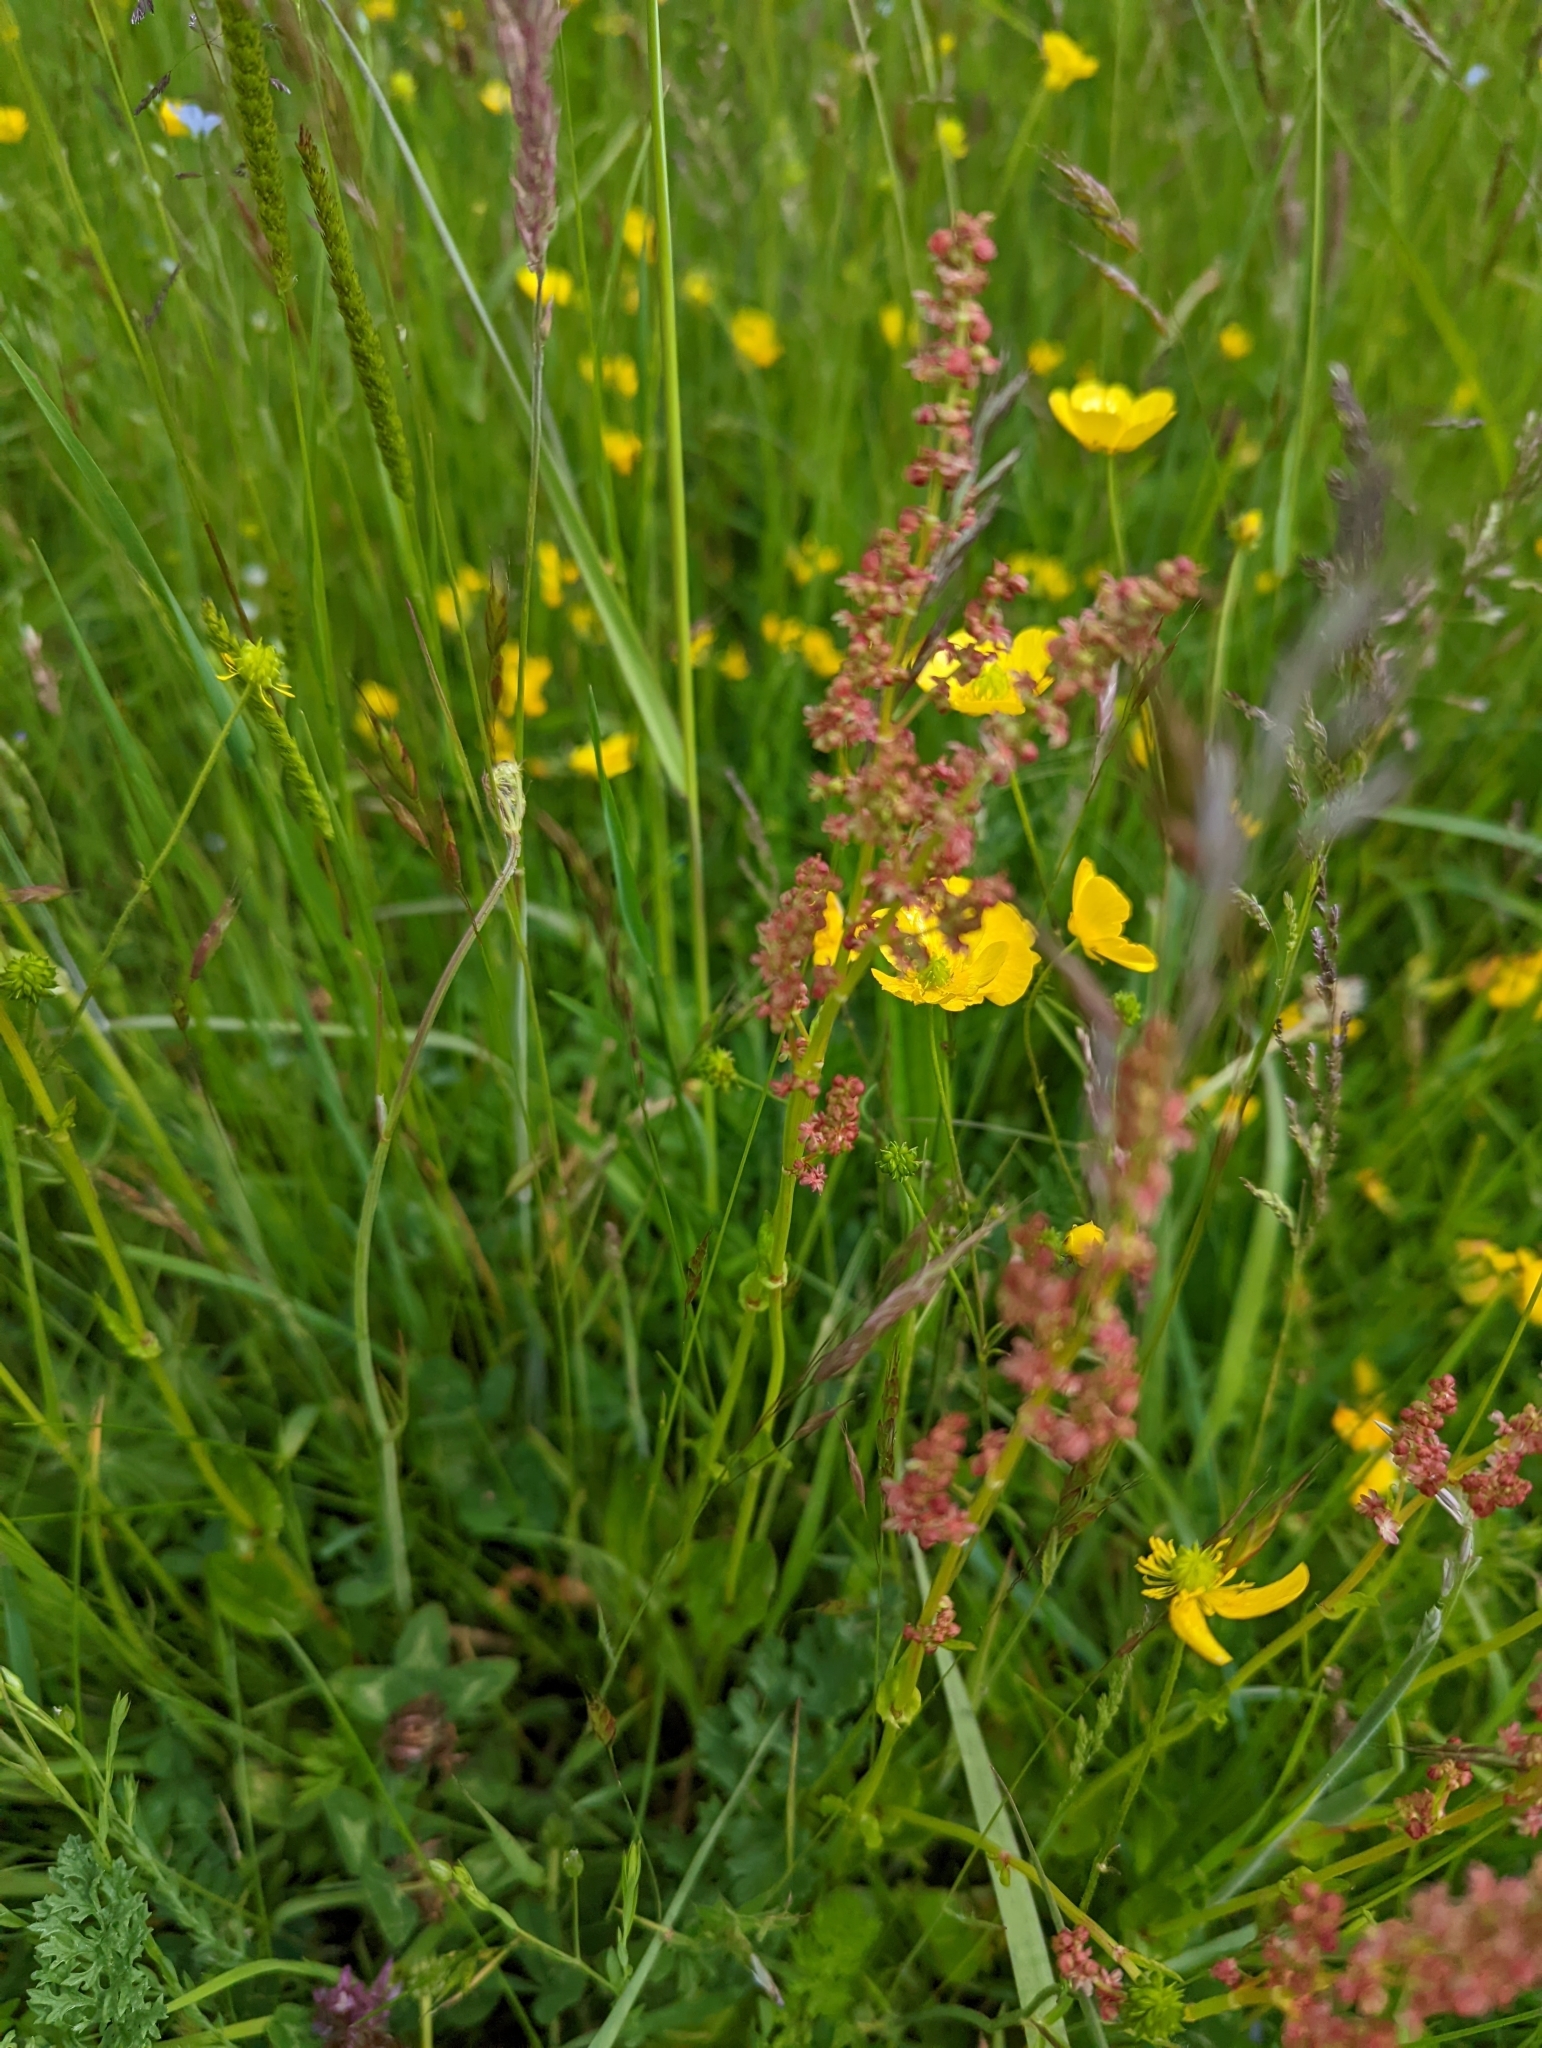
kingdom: Plantae
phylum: Tracheophyta
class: Magnoliopsida
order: Caryophyllales
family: Polygonaceae
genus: Rumex
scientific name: Rumex acetosa
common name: Garden sorrel
